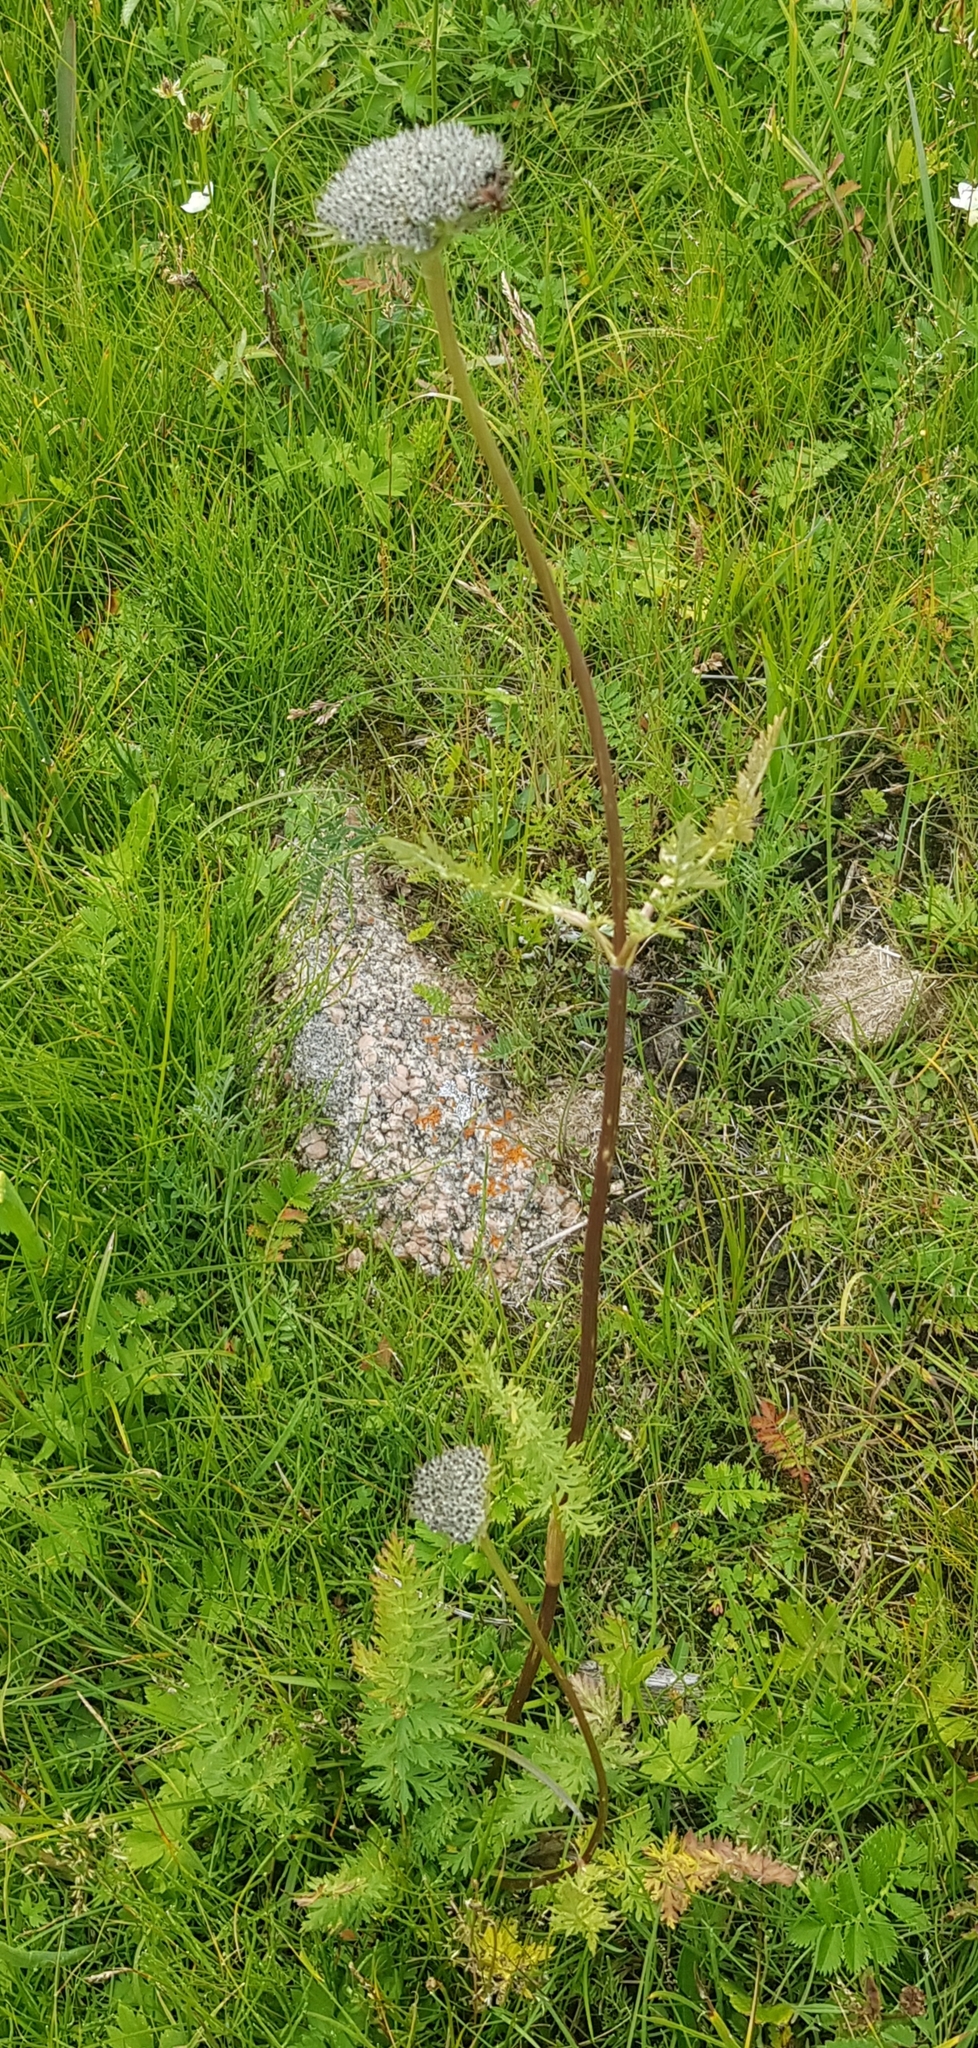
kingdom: Plantae
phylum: Tracheophyta
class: Magnoliopsida
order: Apiales
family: Apiaceae
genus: Seseli
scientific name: Seseli condensatum
